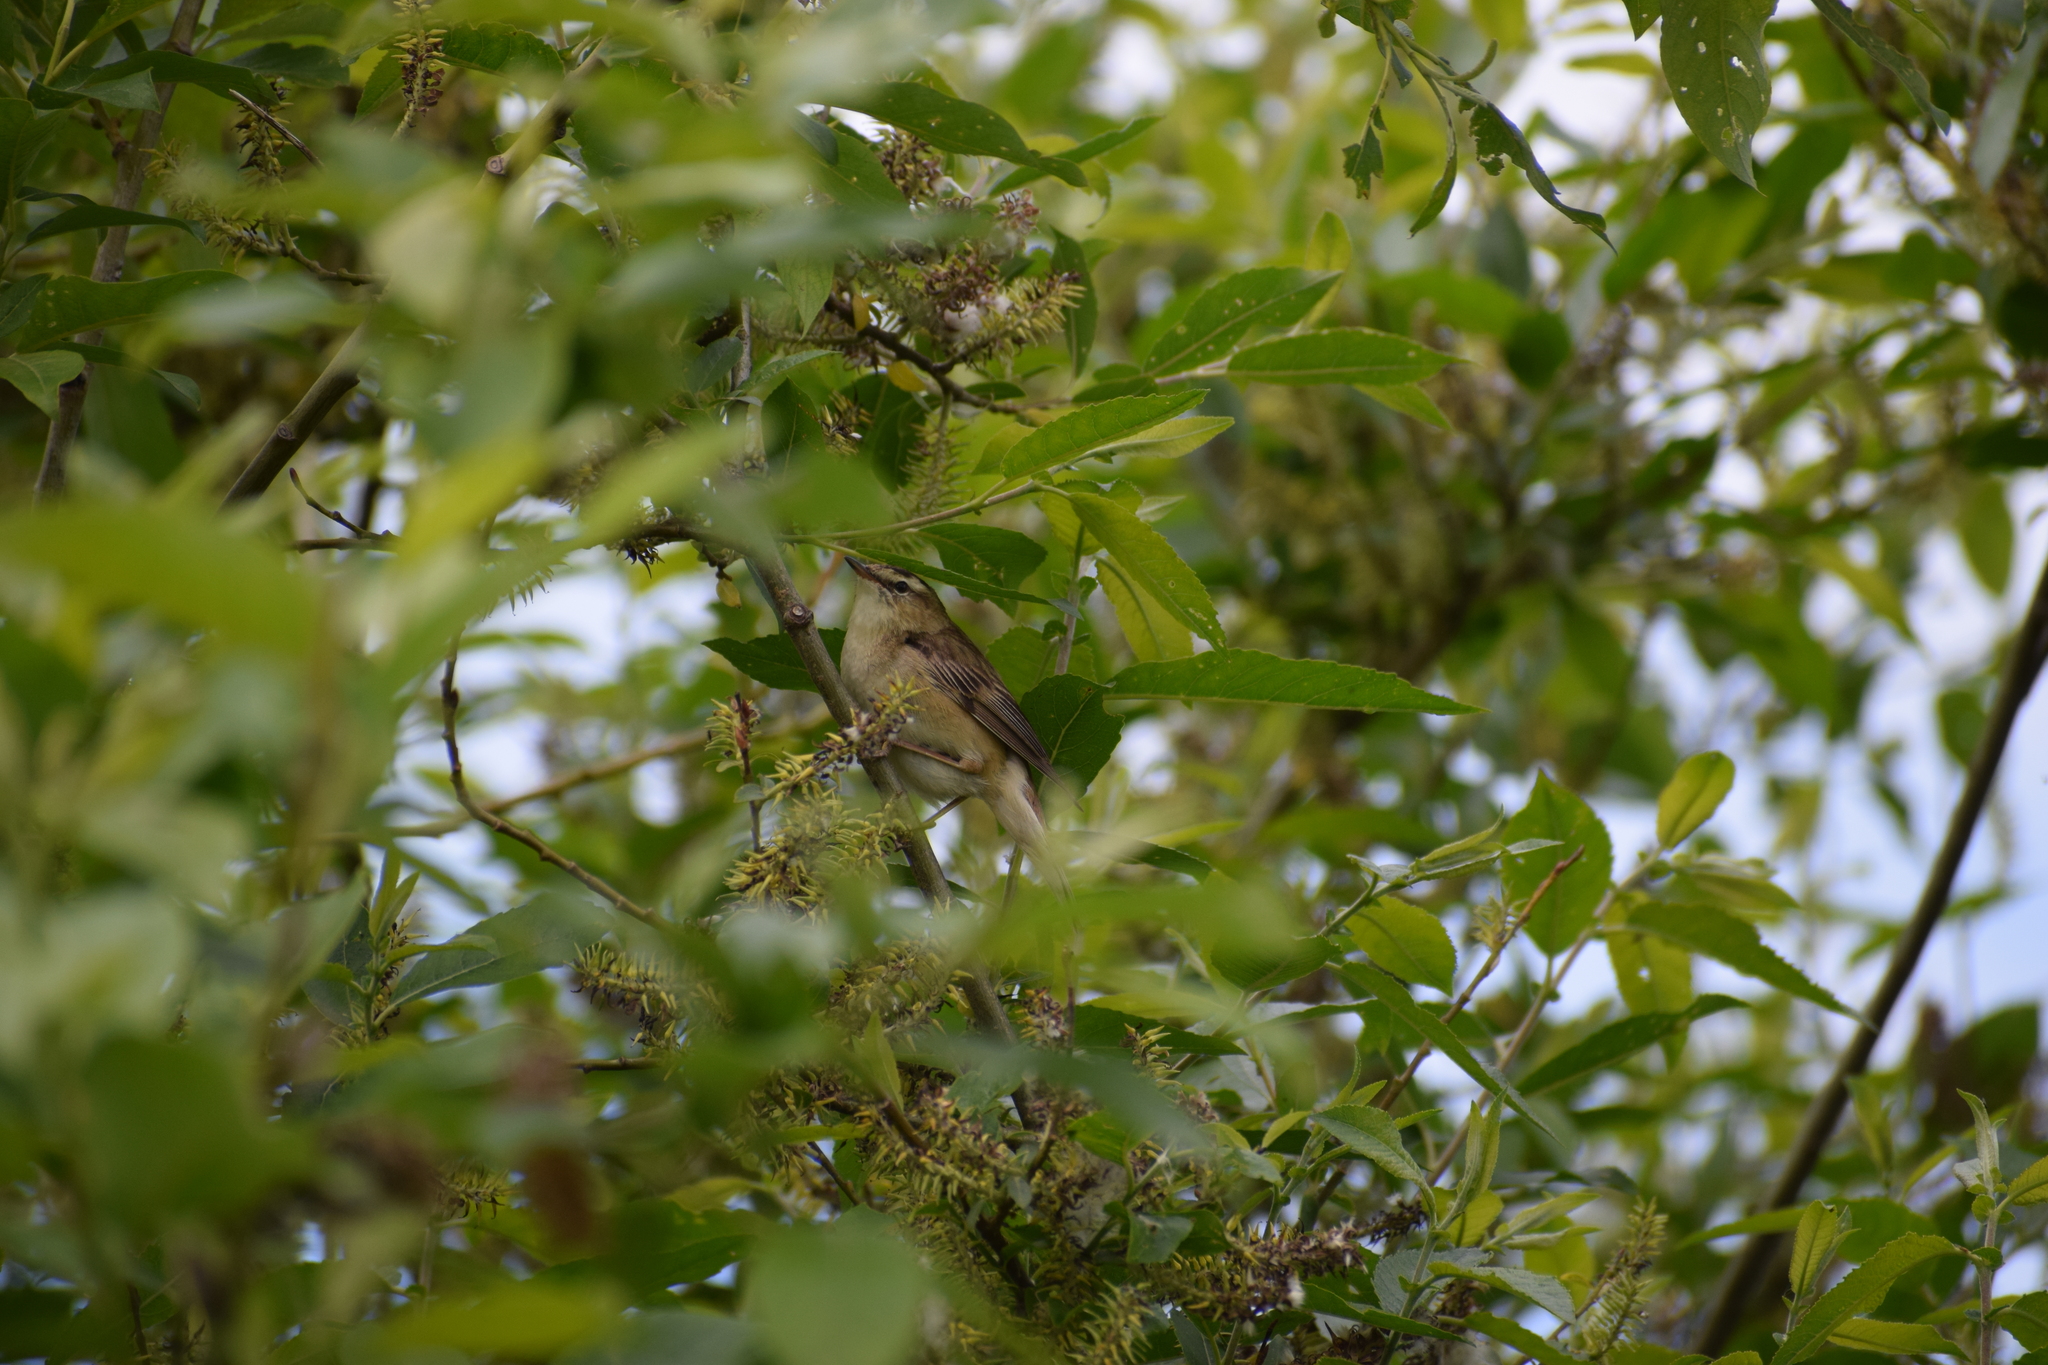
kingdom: Animalia
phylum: Chordata
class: Aves
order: Passeriformes
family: Acrocephalidae
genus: Acrocephalus
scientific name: Acrocephalus schoenobaenus
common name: Sedge warbler
